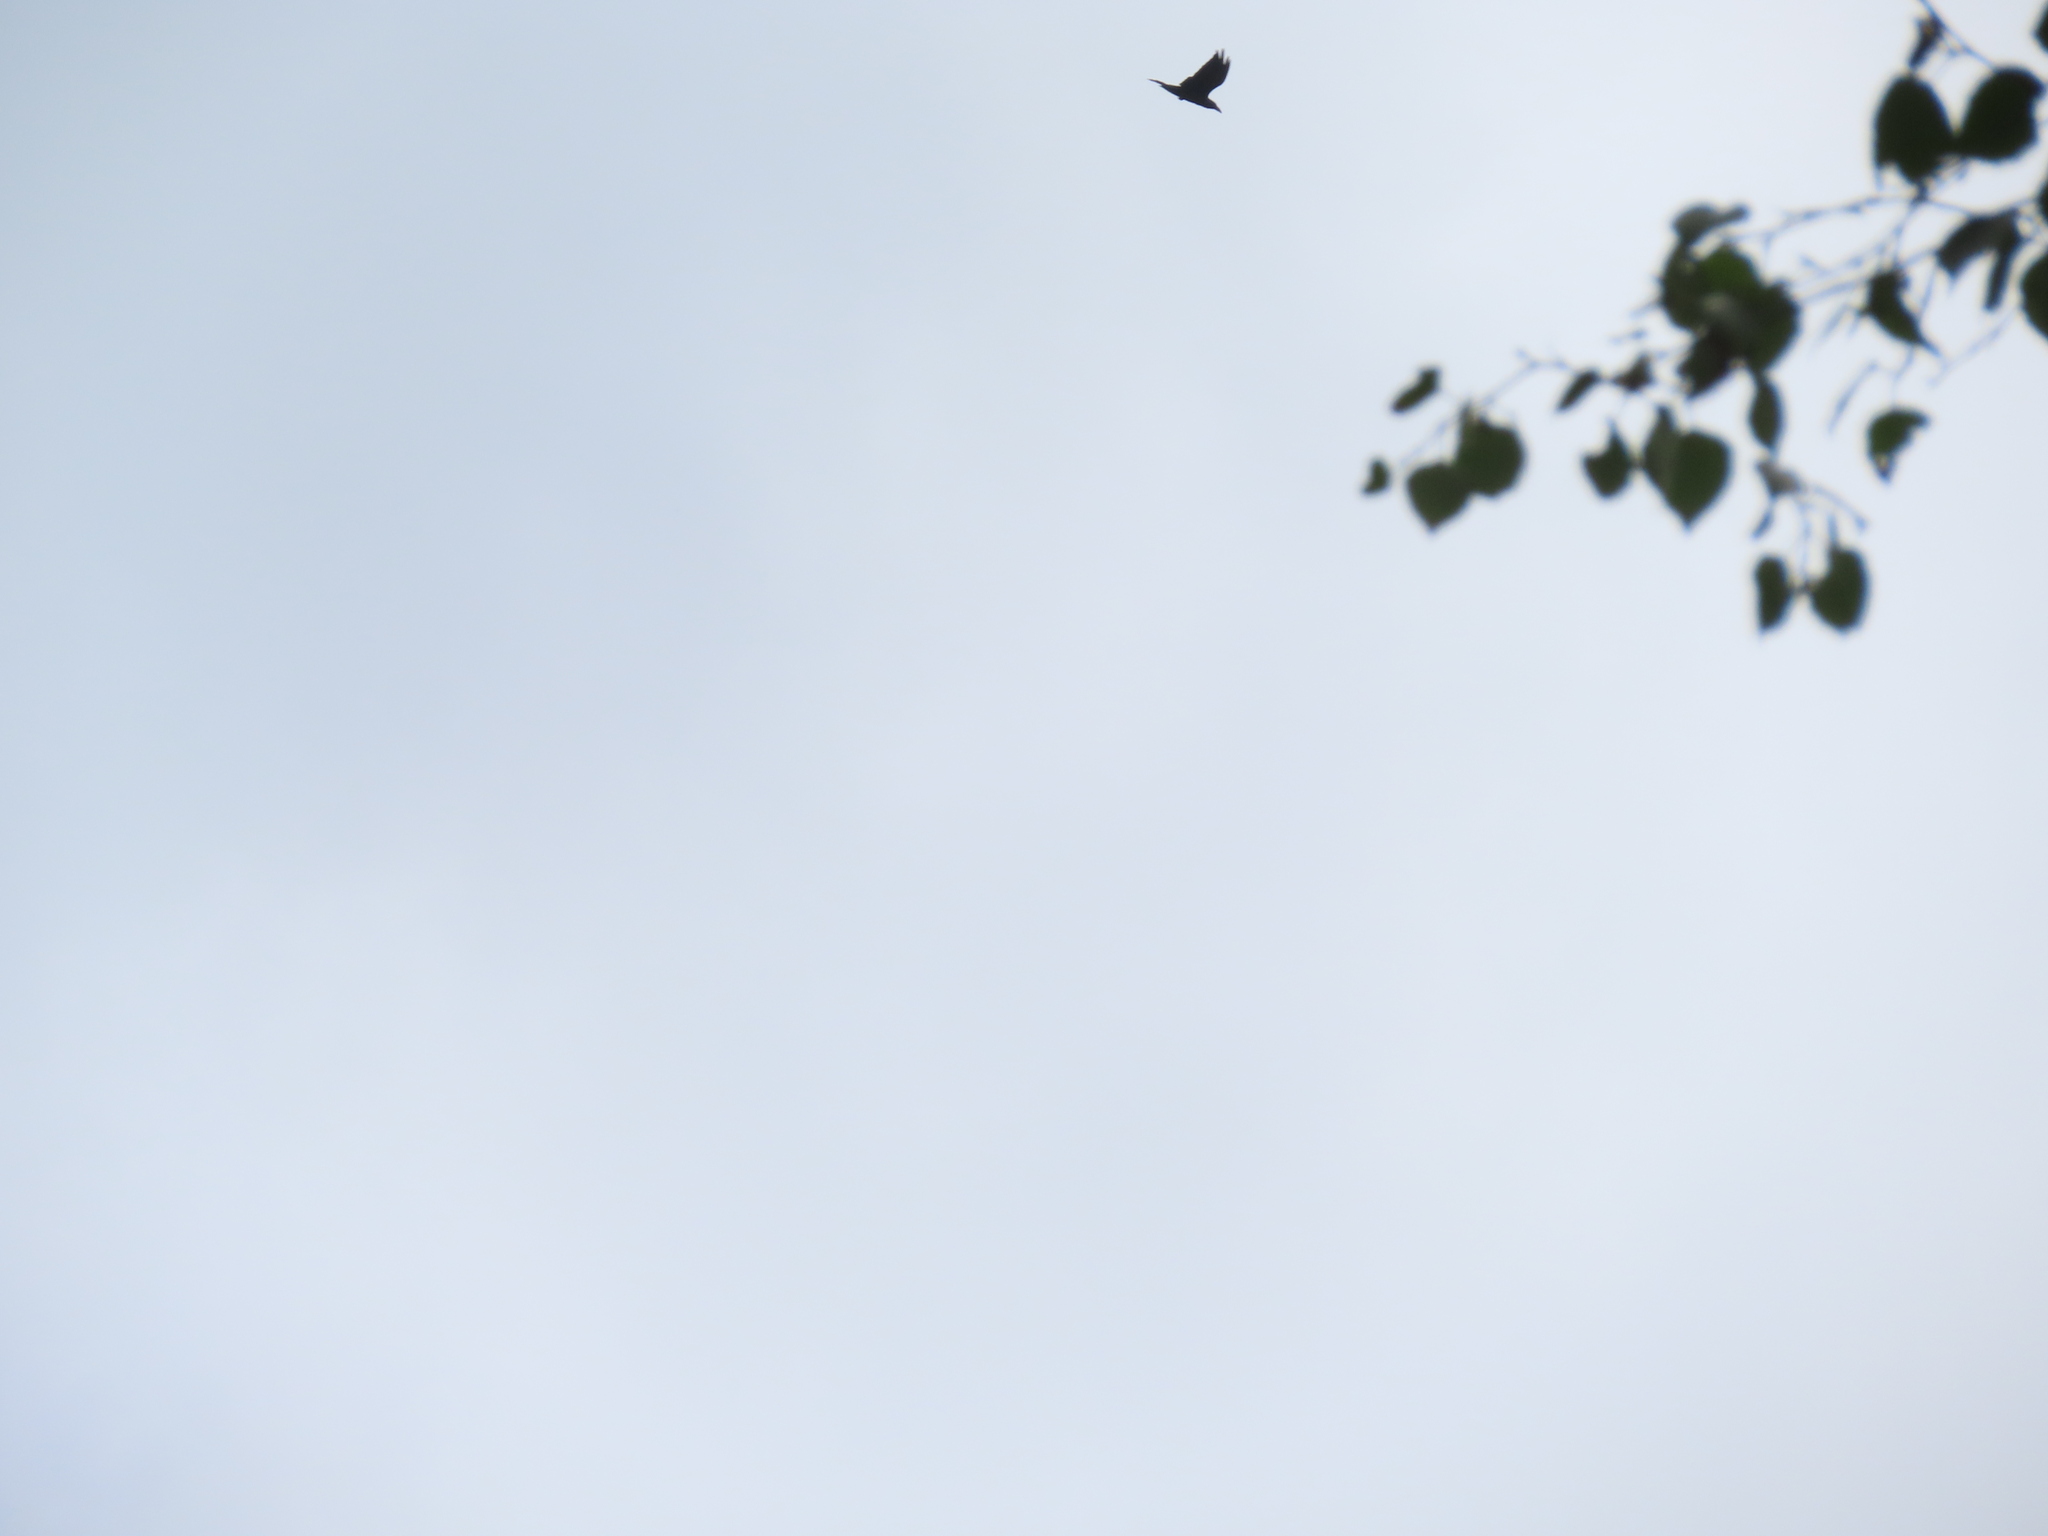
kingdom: Animalia
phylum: Chordata
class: Aves
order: Passeriformes
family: Corvidae
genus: Corvus
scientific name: Corvus corax
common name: Common raven
